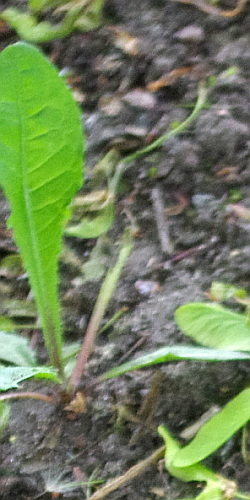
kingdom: Plantae
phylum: Tracheophyta
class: Magnoliopsida
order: Asterales
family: Asteraceae
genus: Taraxacum
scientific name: Taraxacum officinale
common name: Common dandelion
